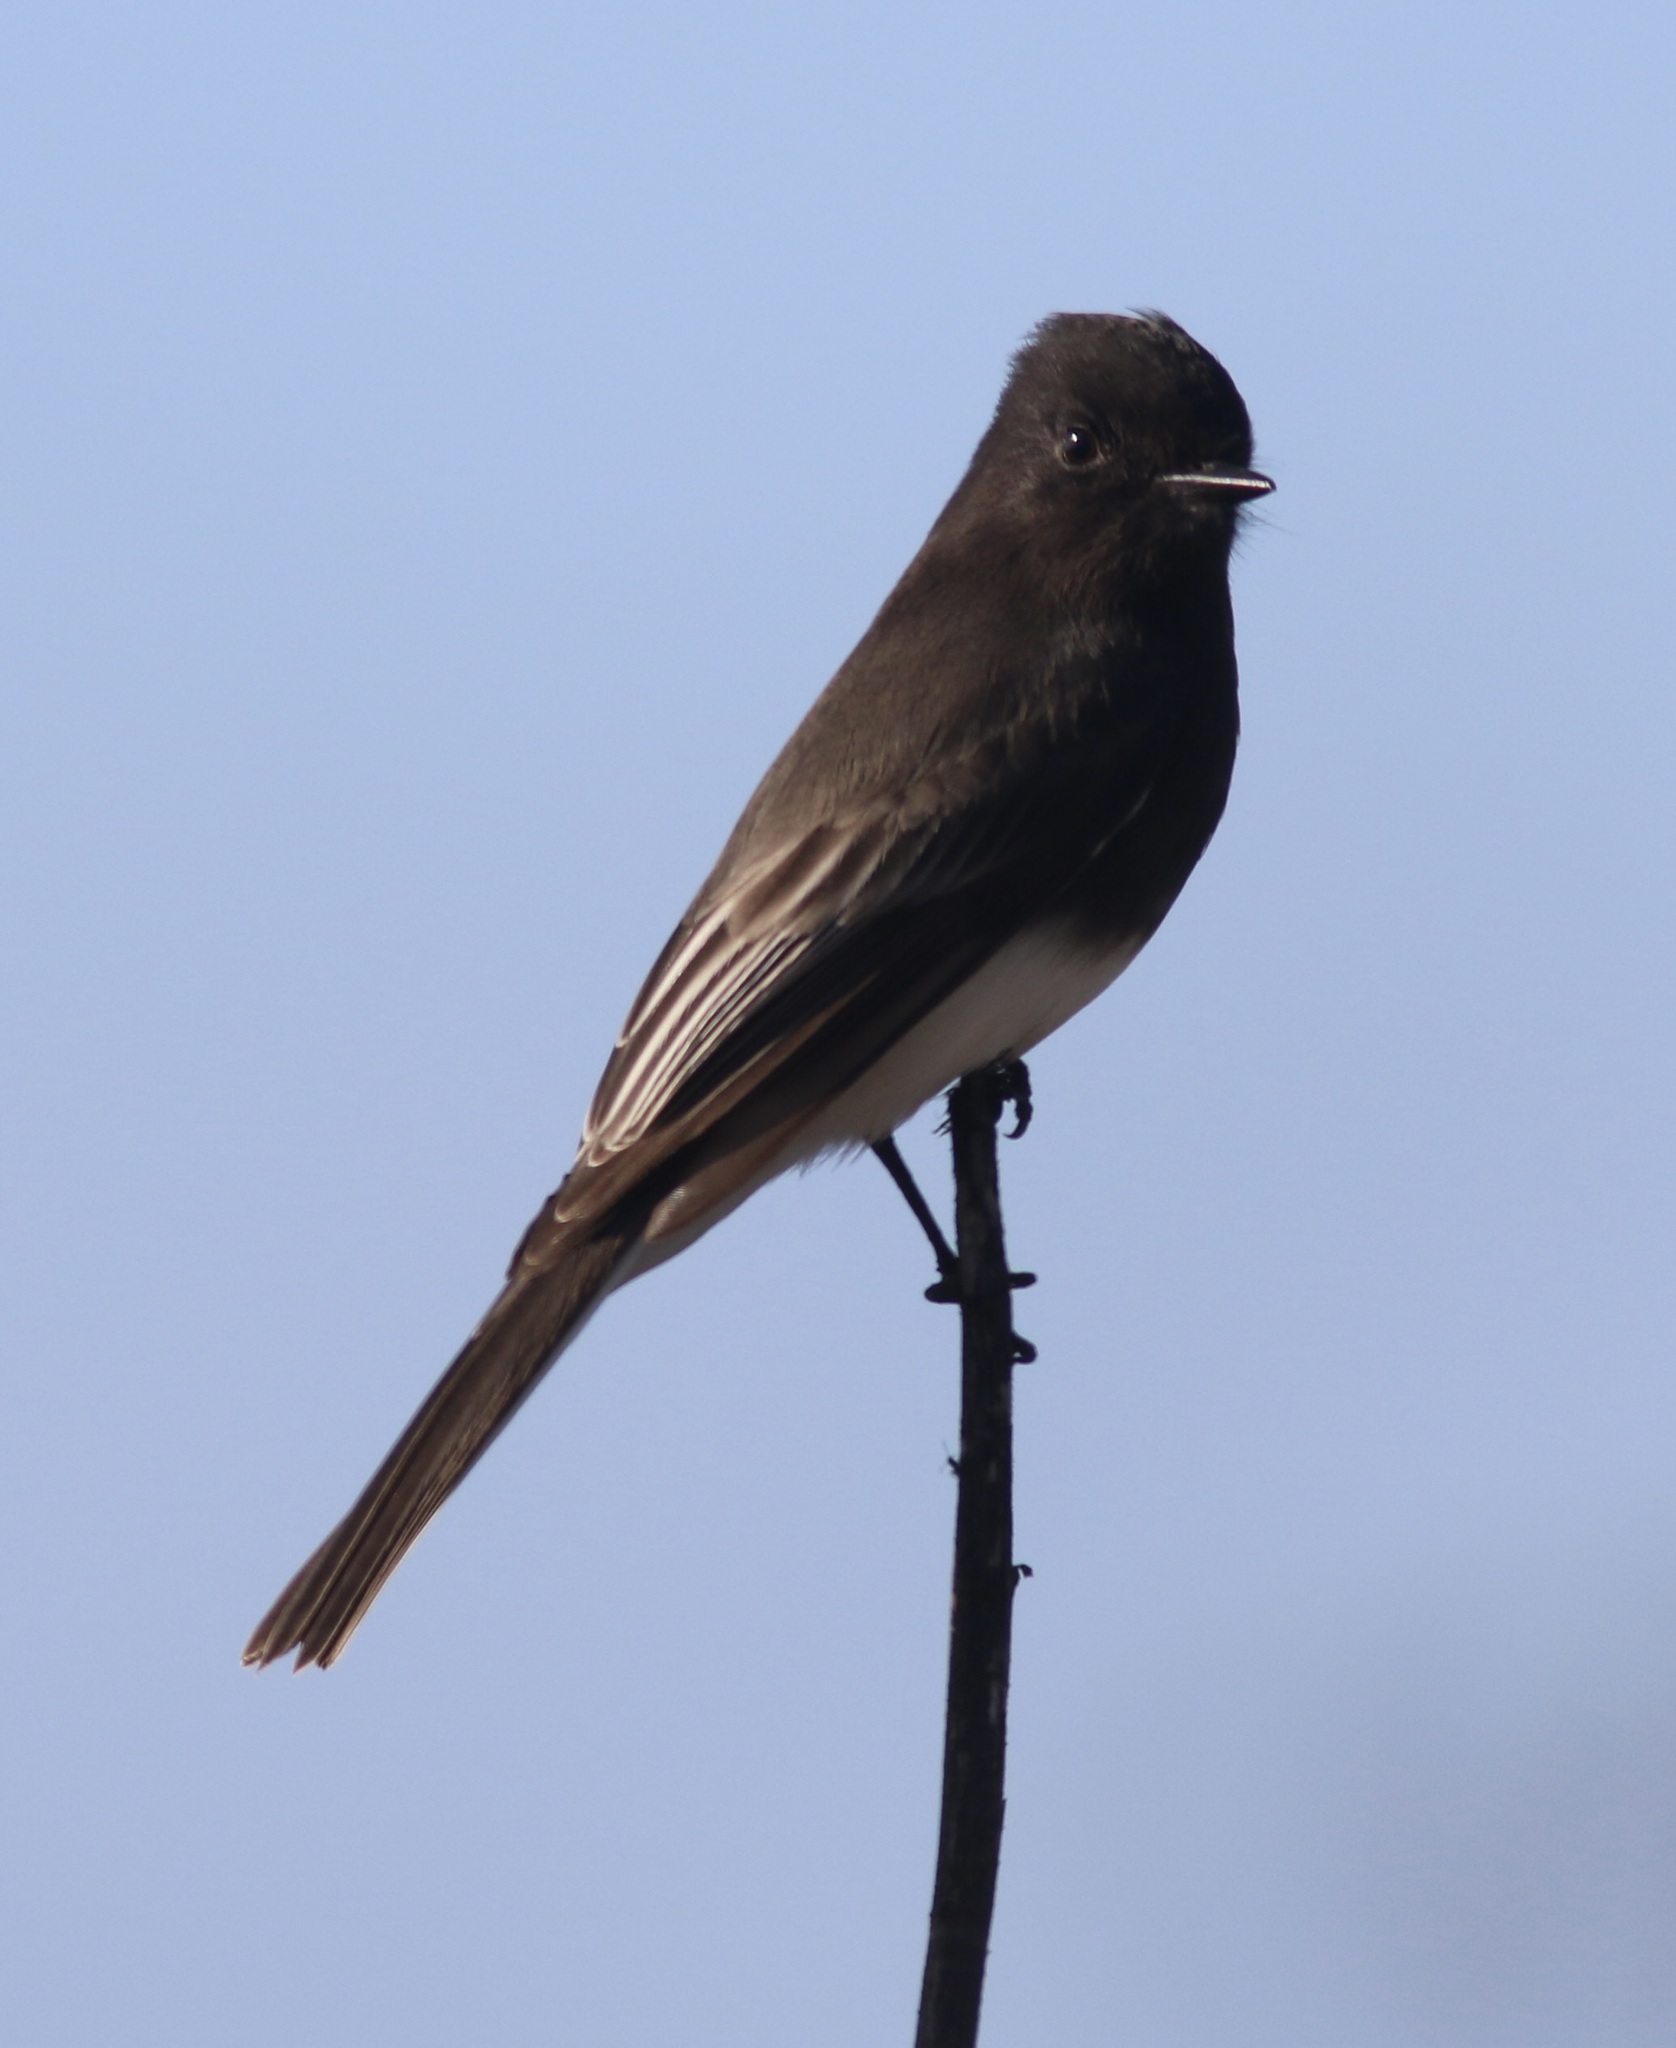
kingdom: Animalia
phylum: Chordata
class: Aves
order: Passeriformes
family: Tyrannidae
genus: Sayornis
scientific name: Sayornis nigricans
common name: Black phoebe
